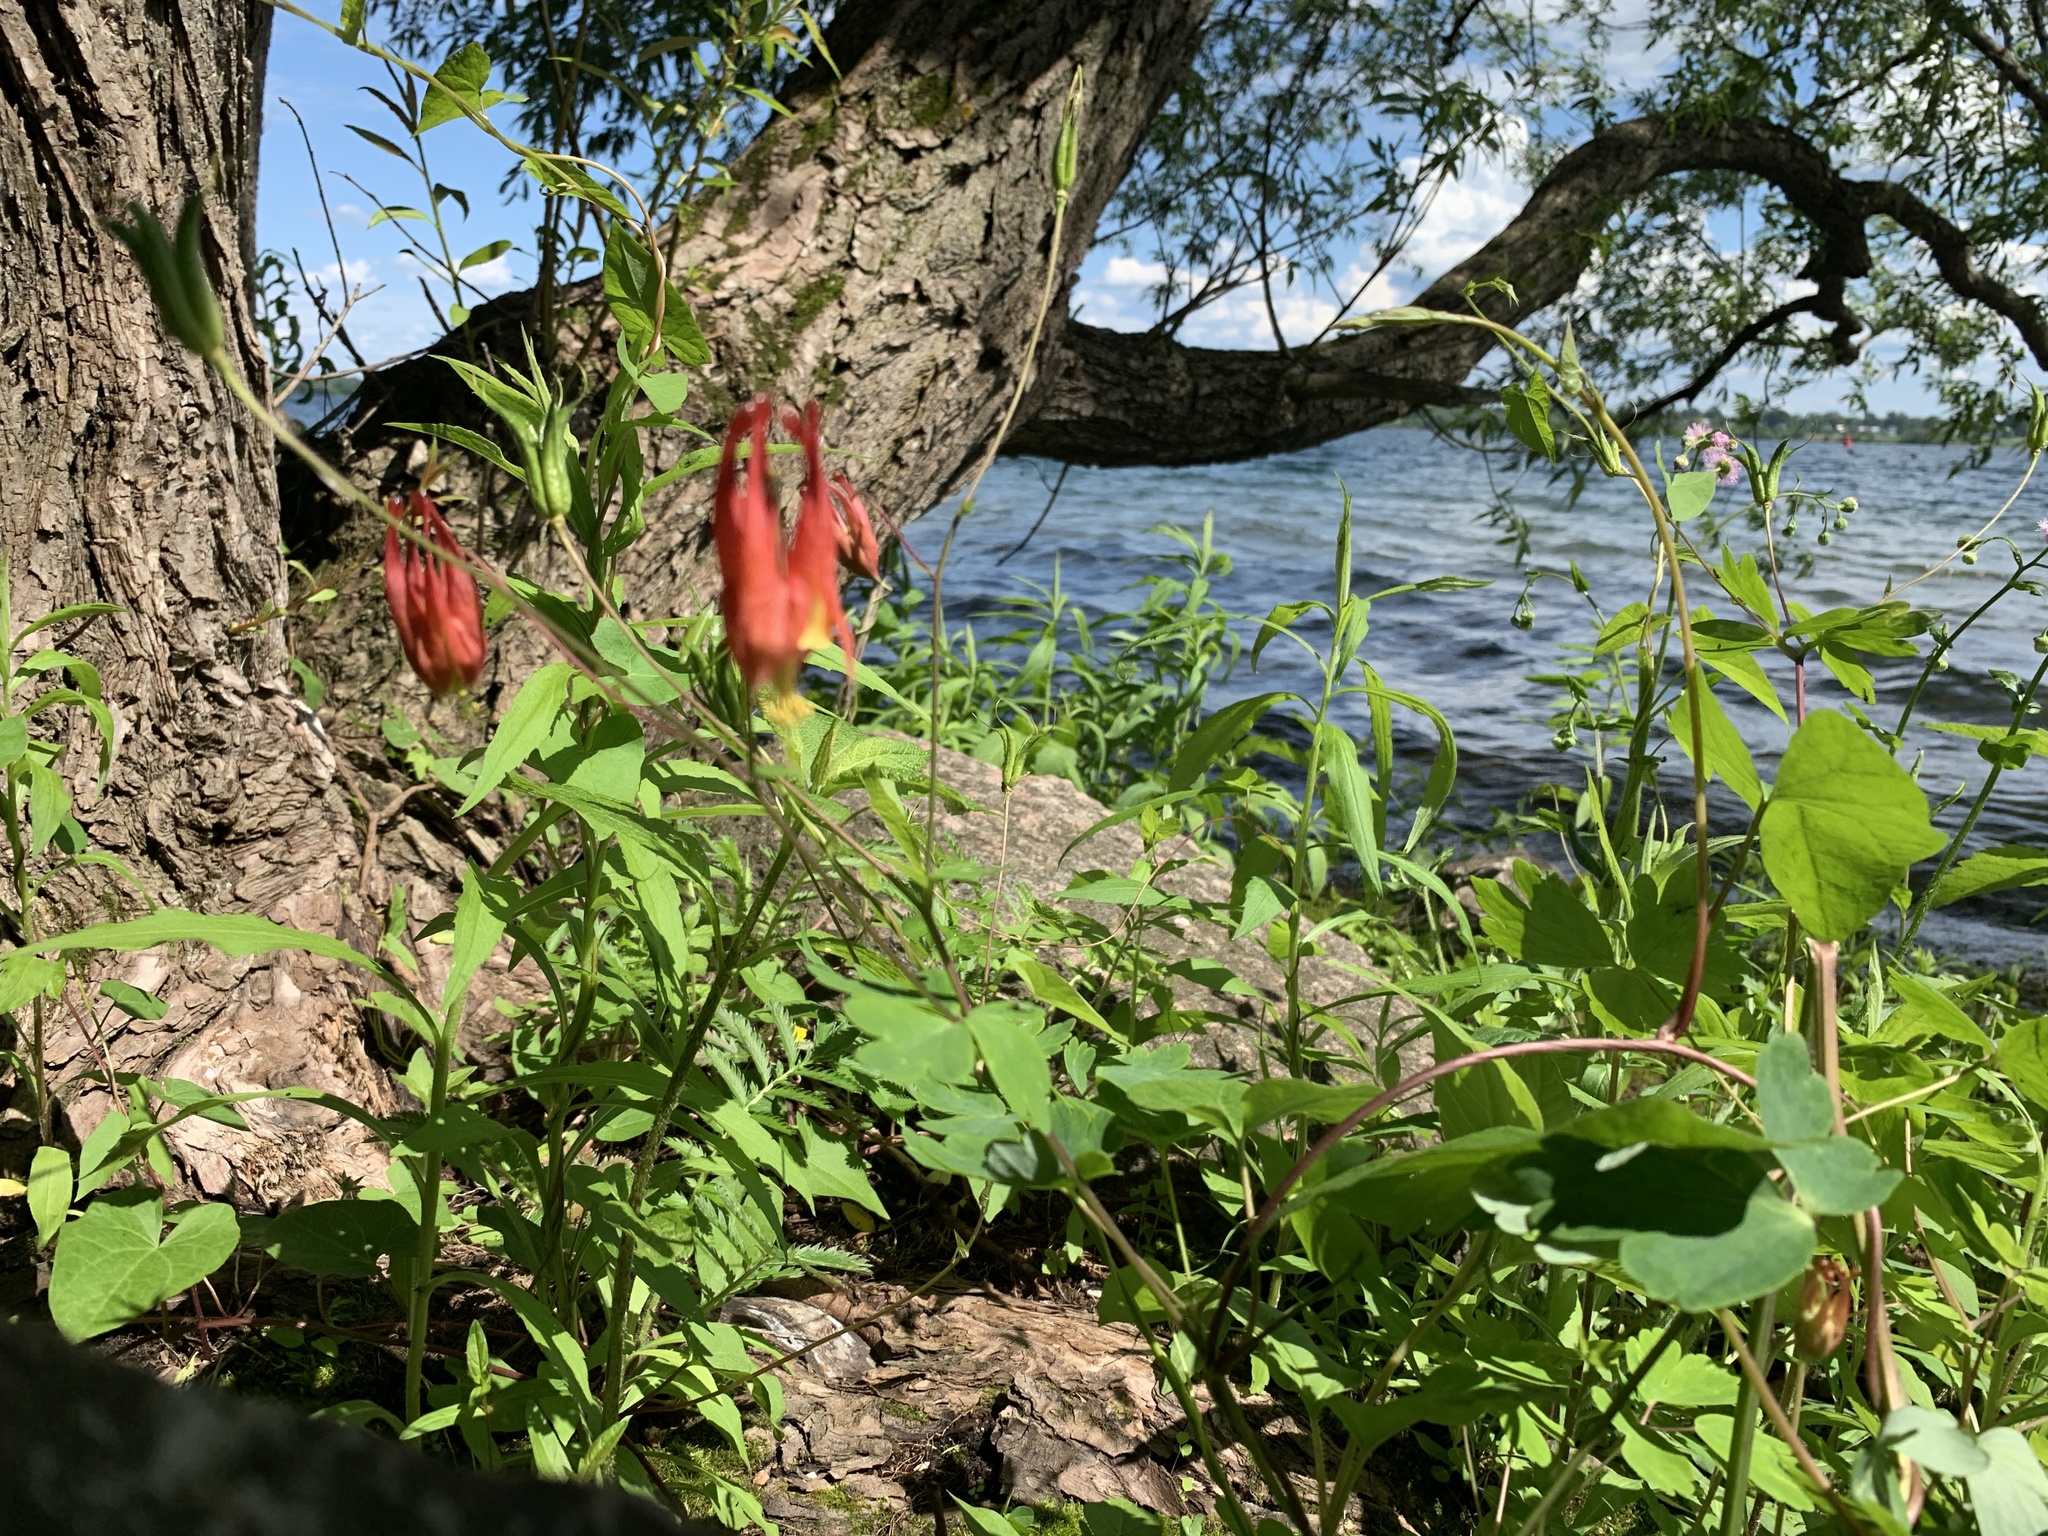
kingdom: Plantae
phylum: Tracheophyta
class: Magnoliopsida
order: Ranunculales
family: Ranunculaceae
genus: Aquilegia
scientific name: Aquilegia canadensis
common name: American columbine
